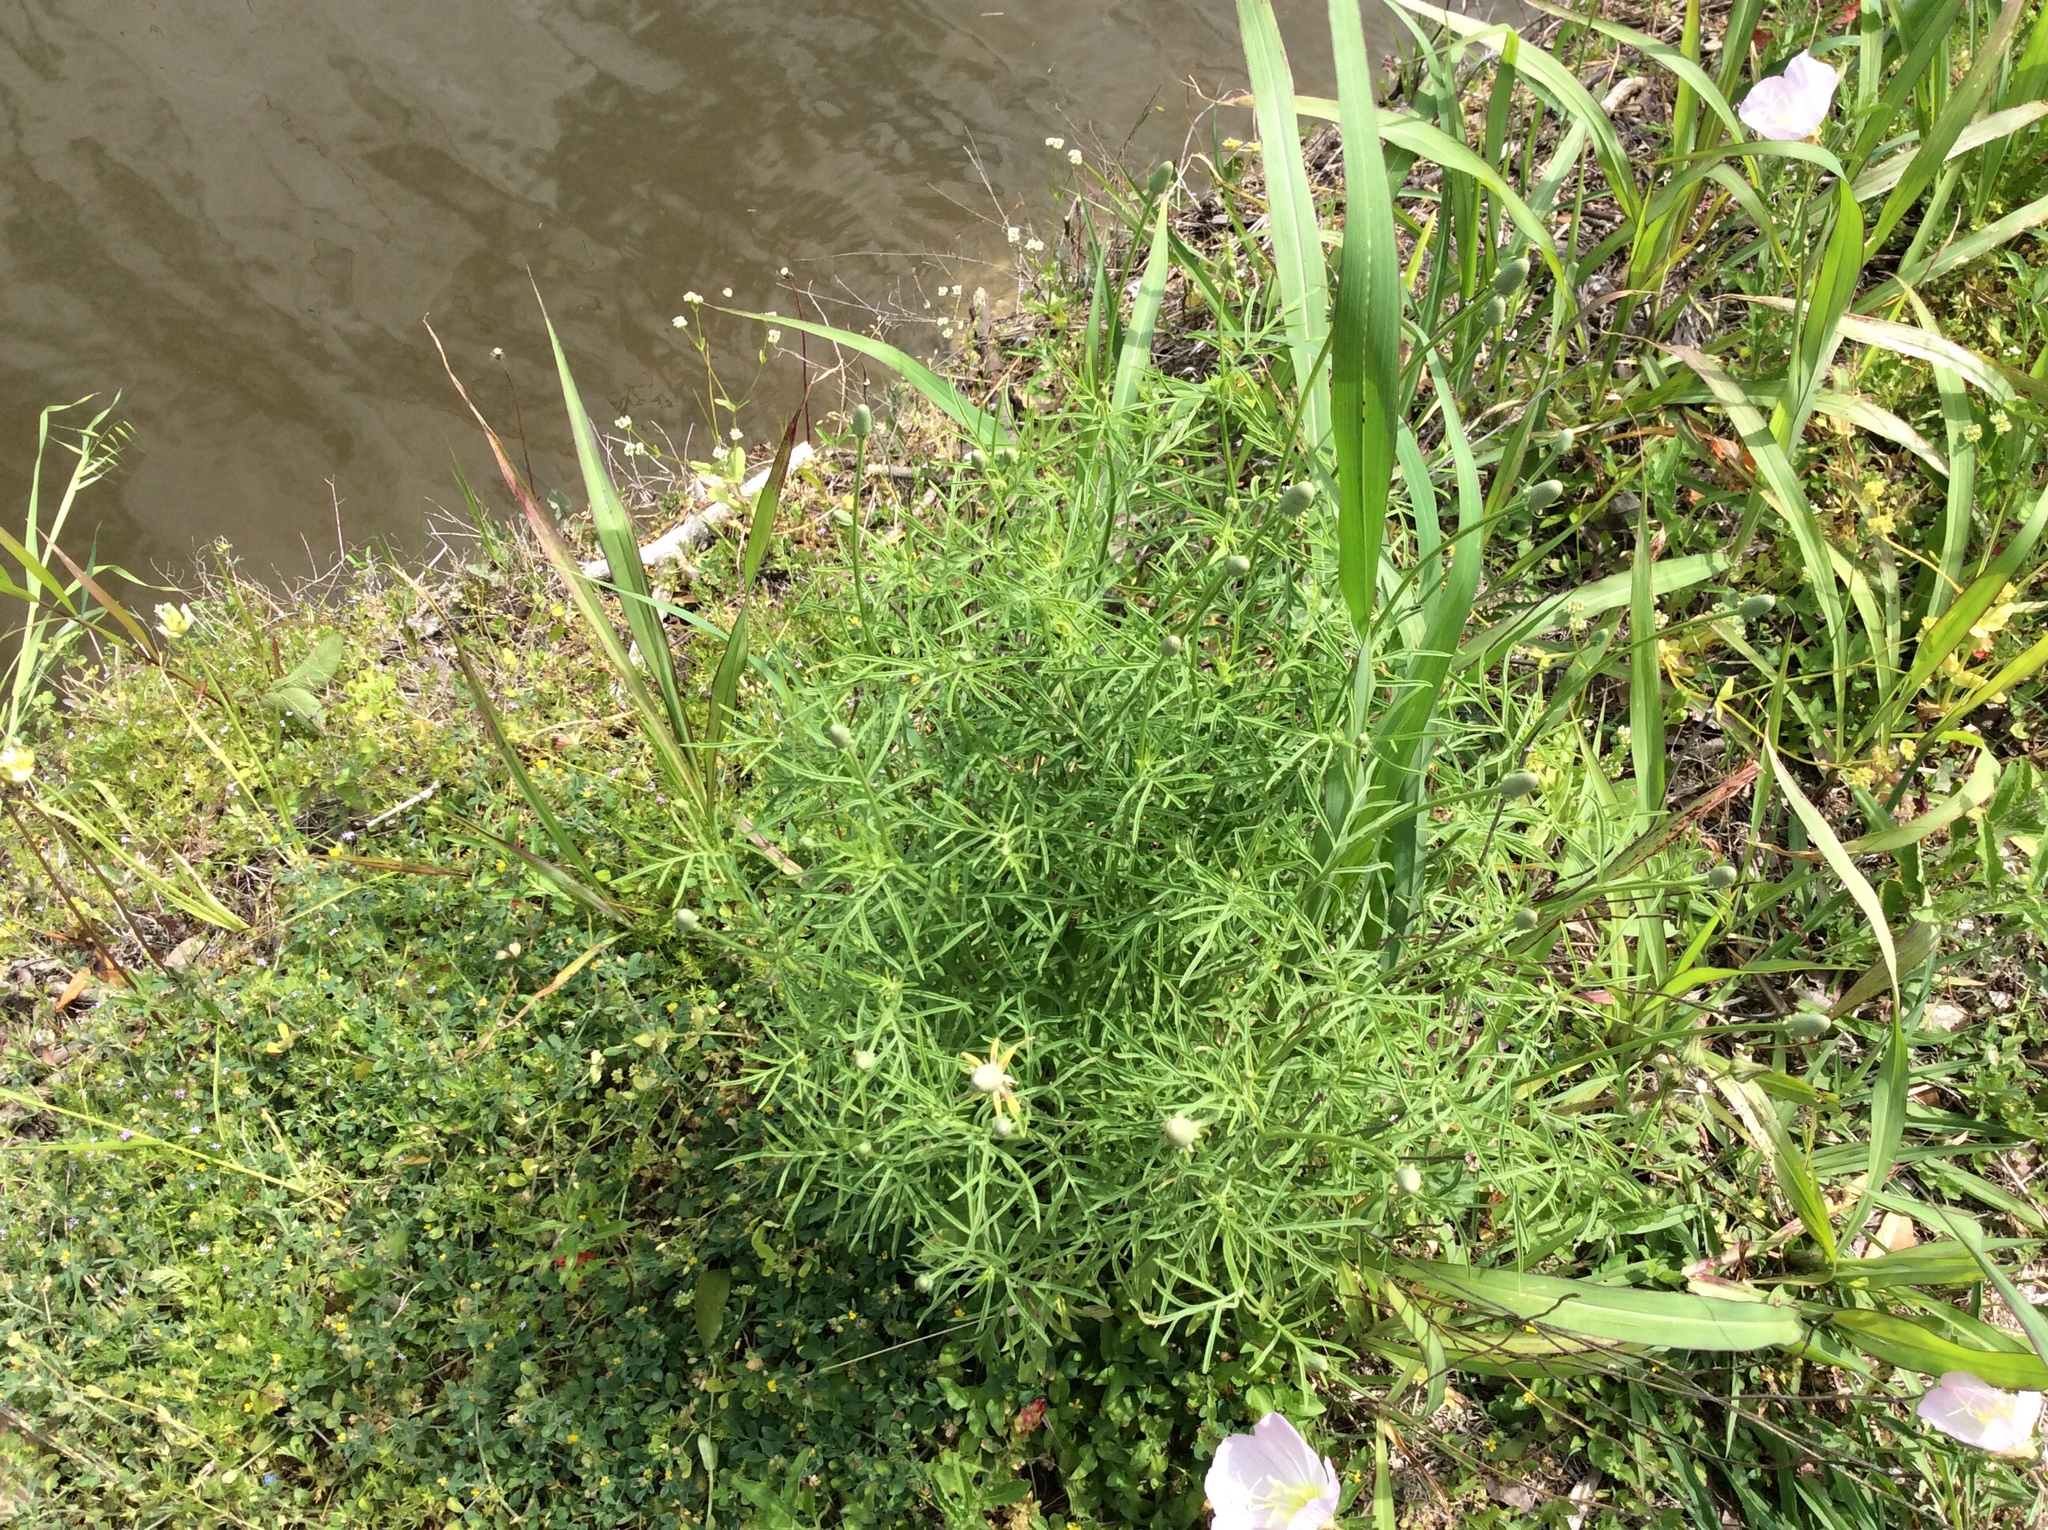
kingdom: Plantae
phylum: Tracheophyta
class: Magnoliopsida
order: Asterales
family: Asteraceae
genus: Ratibida
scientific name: Ratibida columnifera
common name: Prairie coneflower
